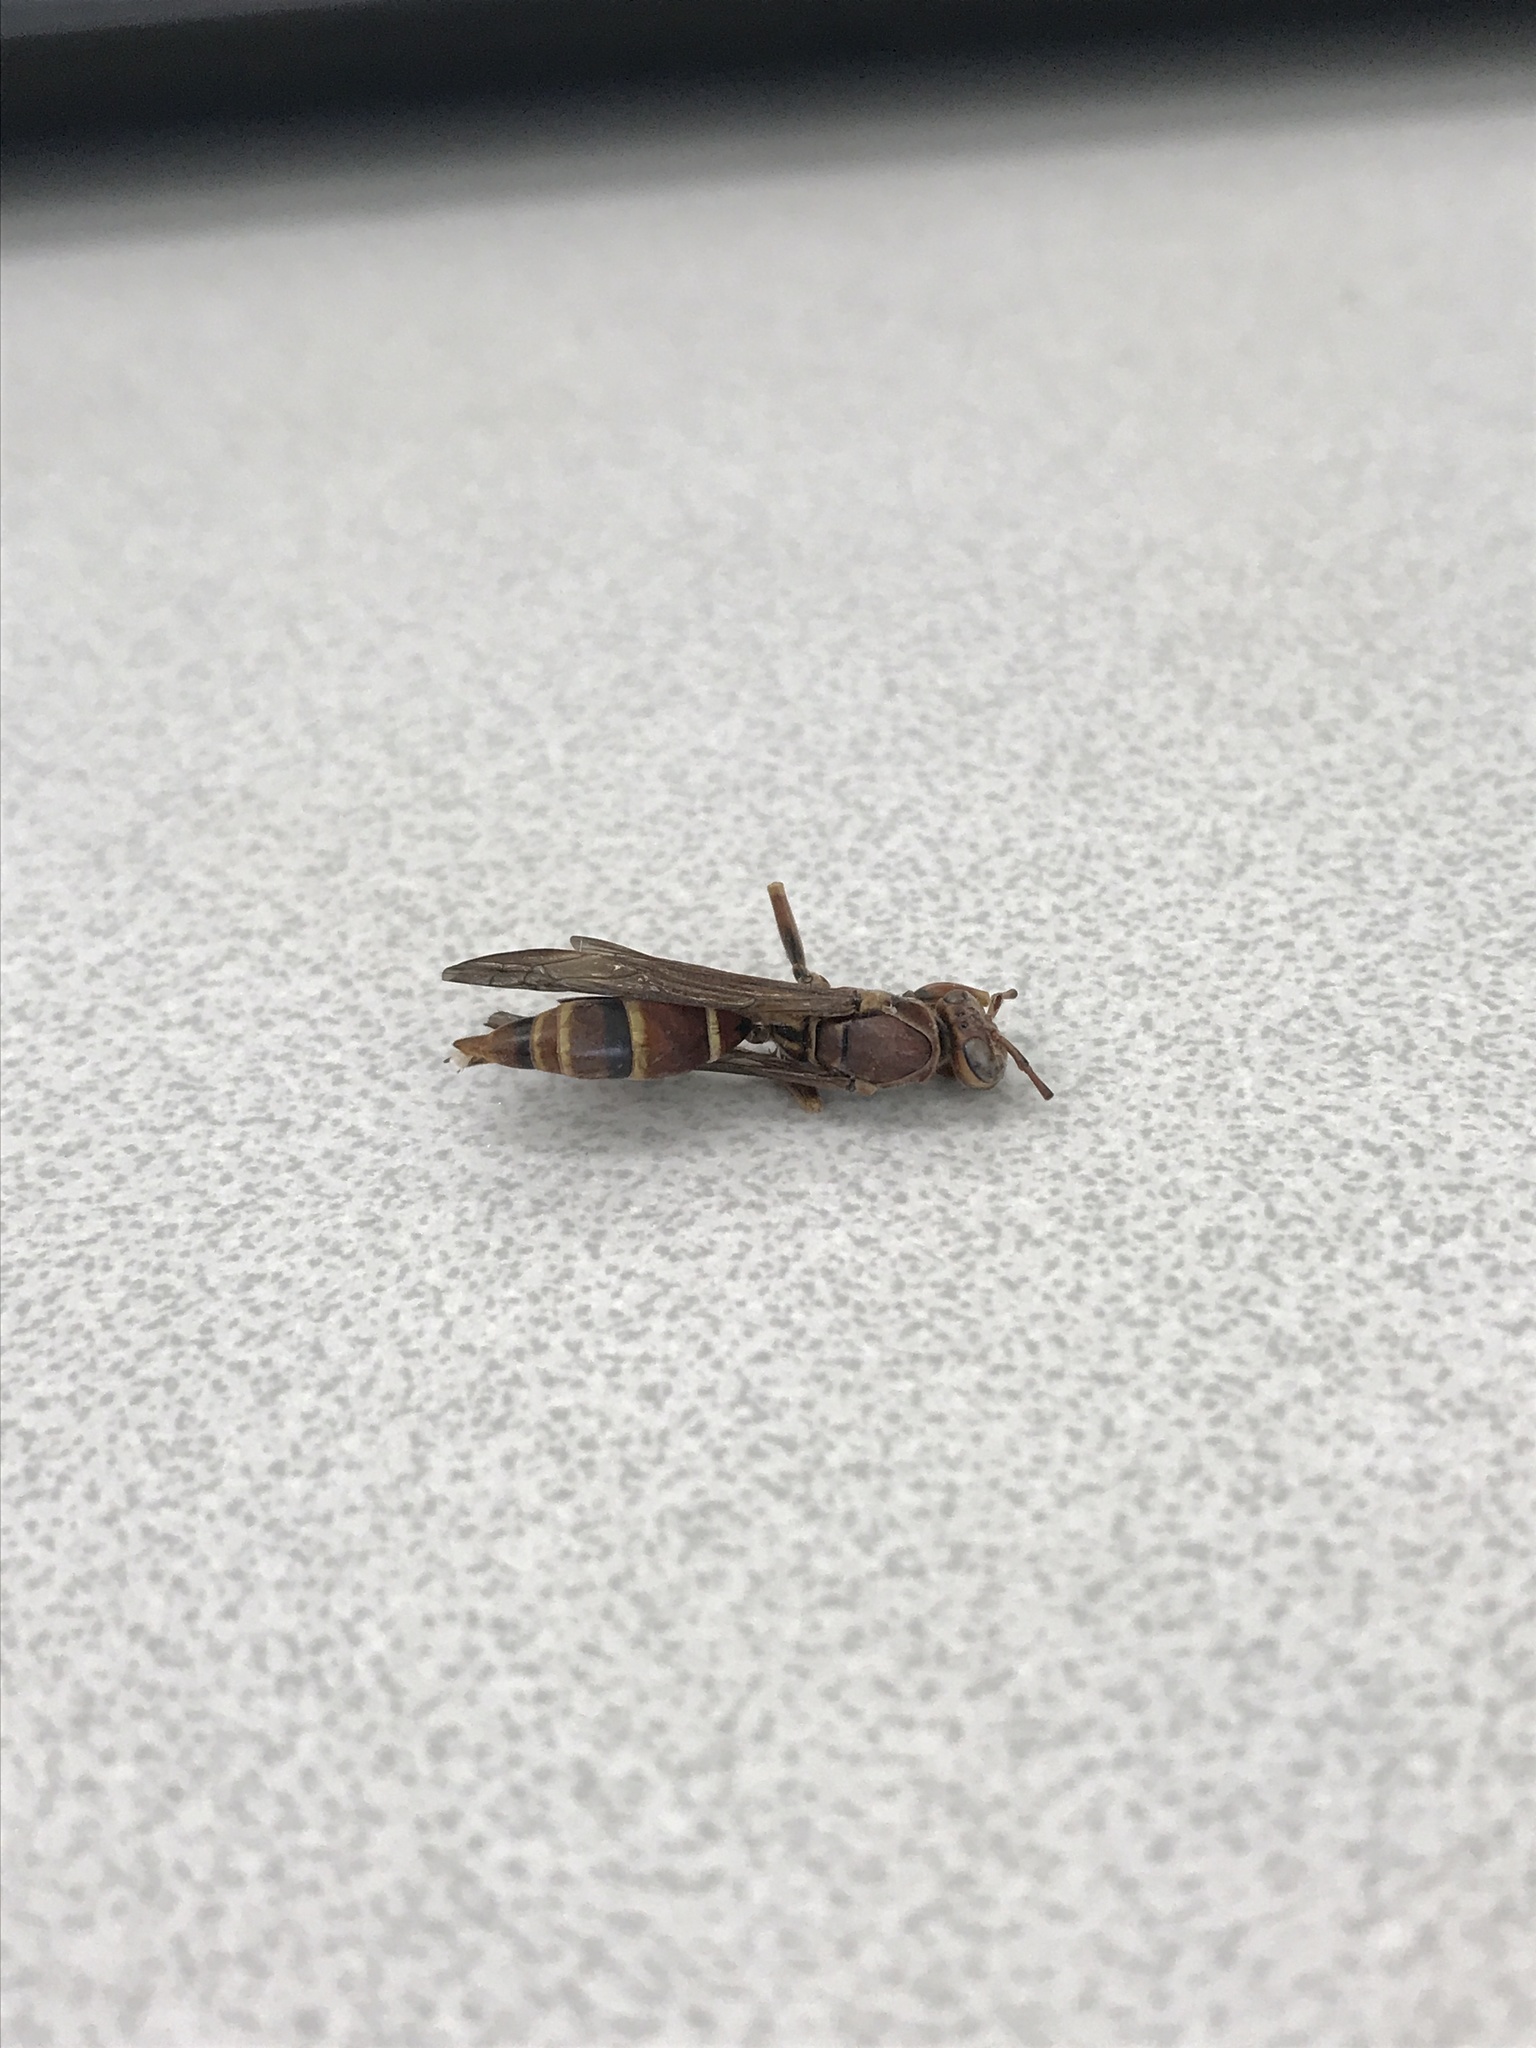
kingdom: Animalia
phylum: Arthropoda
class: Insecta
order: Hymenoptera
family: Eumenidae
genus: Polistes
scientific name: Polistes fuscatus
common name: Dark paper wasp
